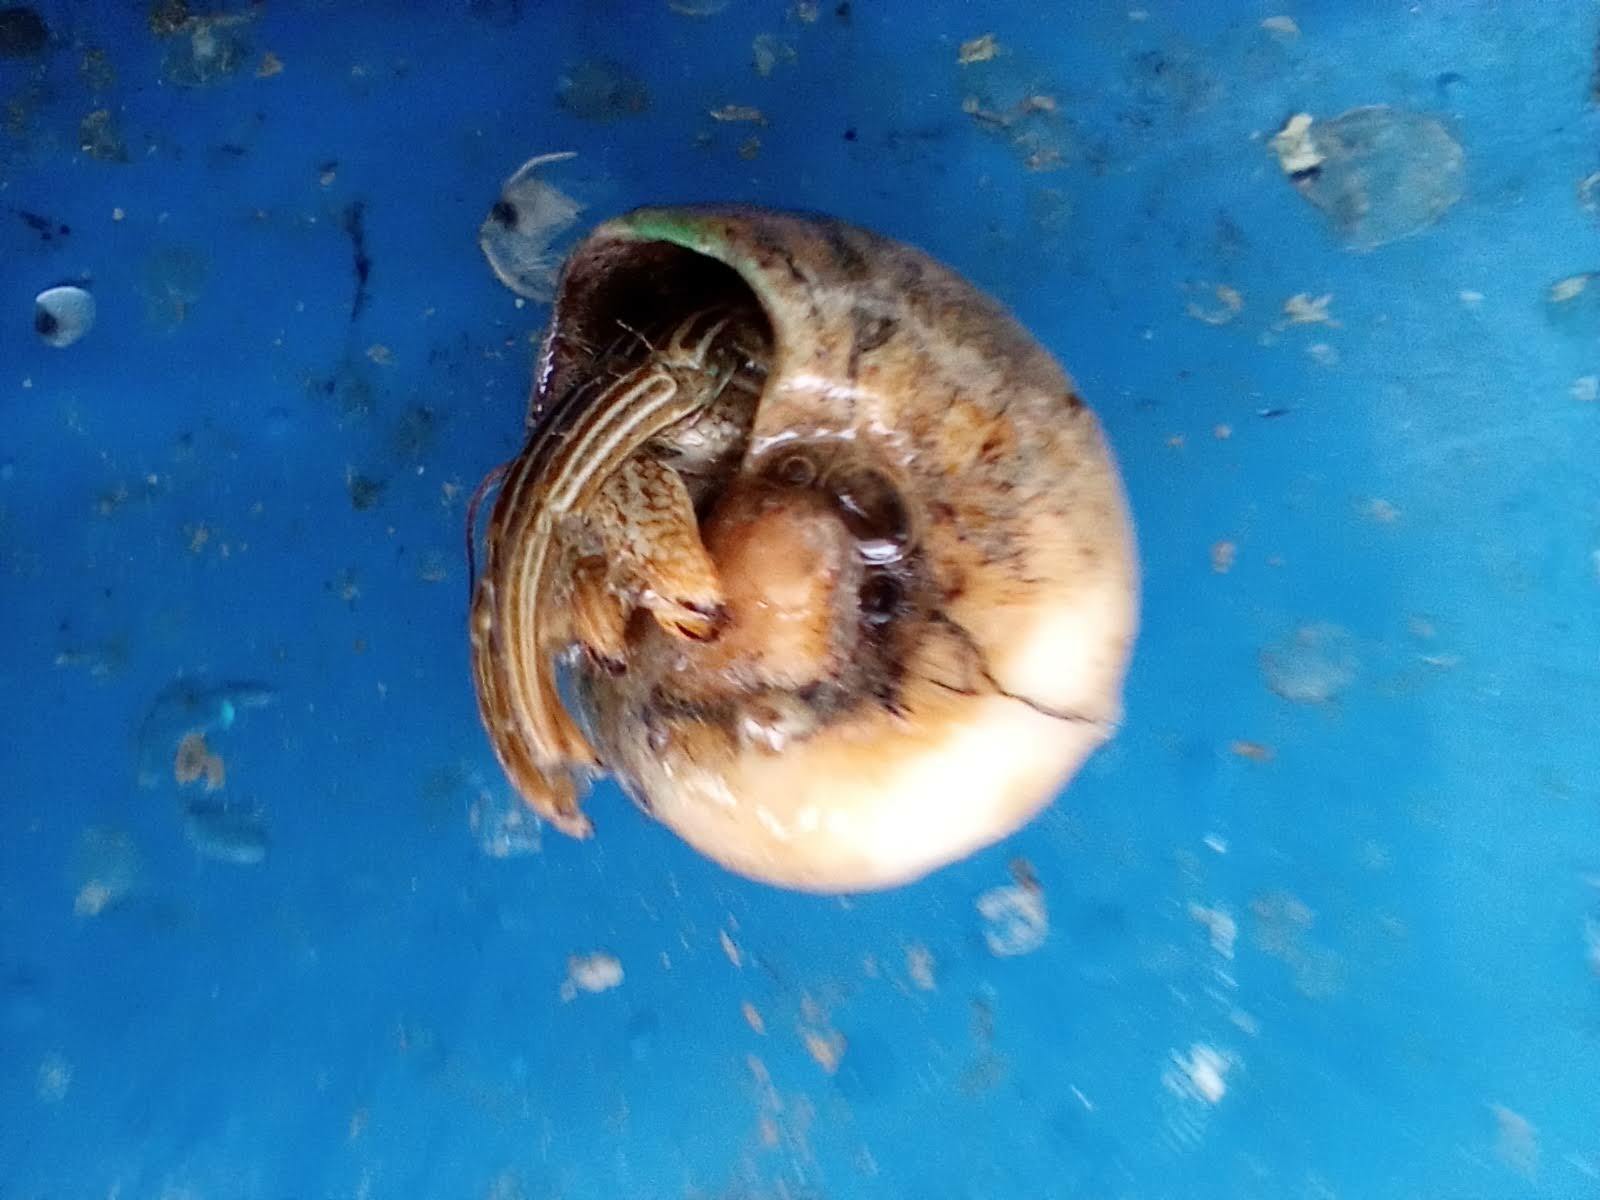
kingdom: Animalia
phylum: Arthropoda
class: Malacostraca
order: Decapoda
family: Diogenidae
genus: Clibanarius
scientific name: Clibanarius vittatus
